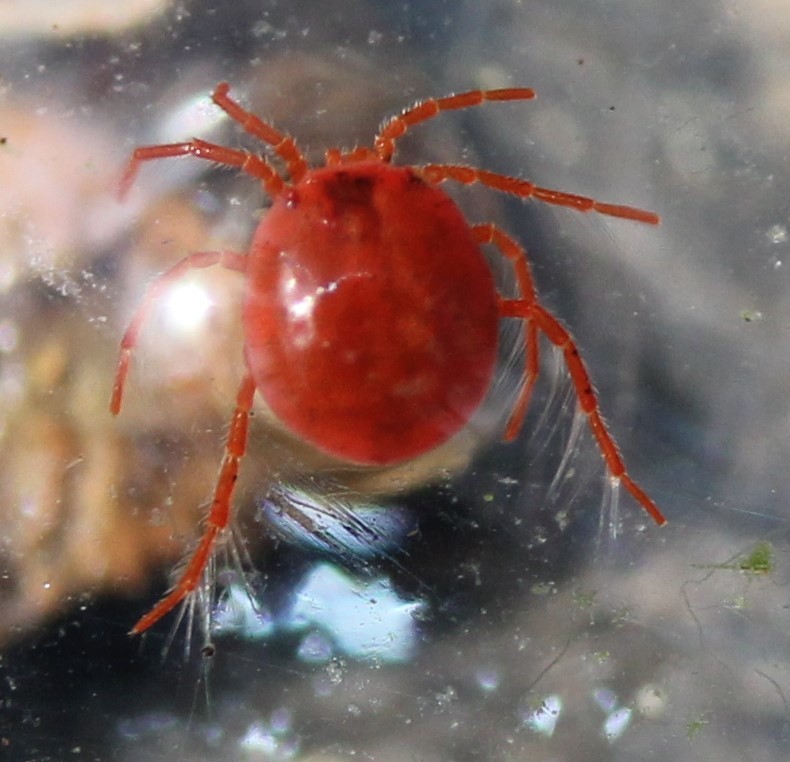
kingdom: Animalia
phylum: Arthropoda
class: Arachnida
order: Trombidiformes
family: Hydryphantidae
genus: Hydryphantes
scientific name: Hydryphantes
